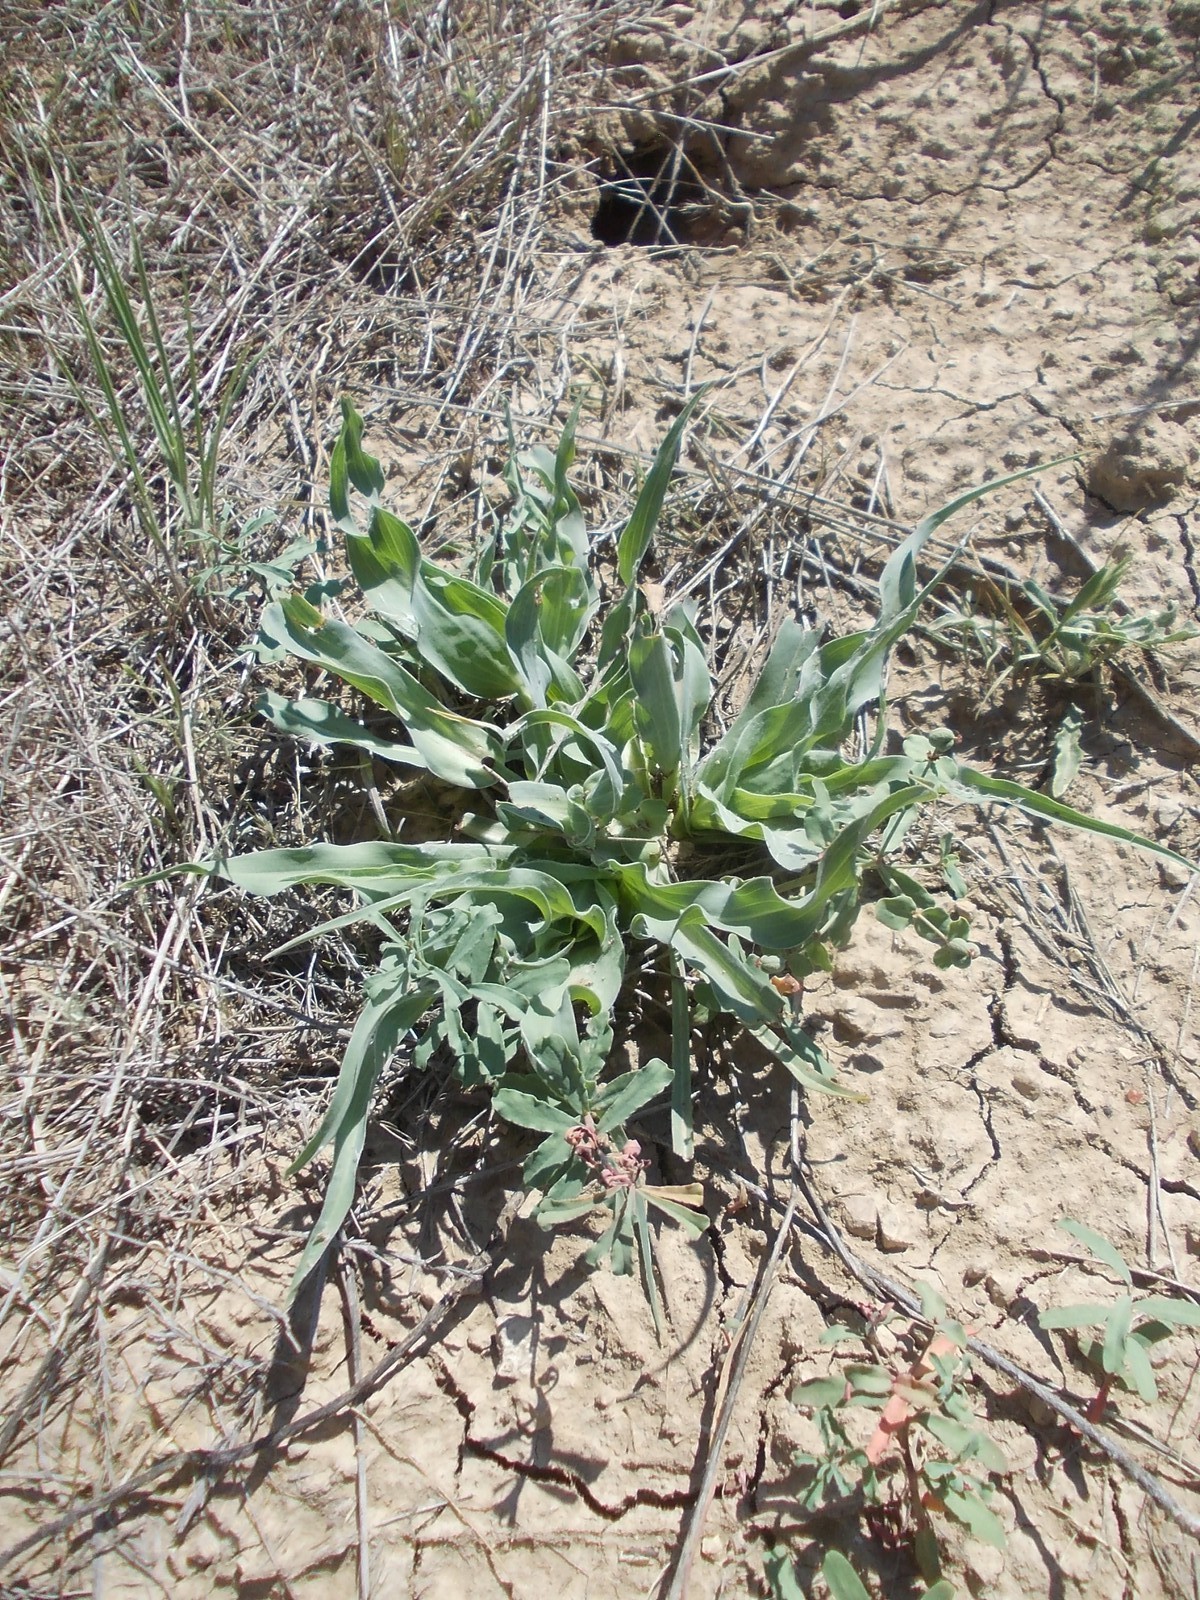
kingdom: Plantae
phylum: Tracheophyta
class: Magnoliopsida
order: Asterales
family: Asteraceae
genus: Tragopogon
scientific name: Tragopogon marginifolius
